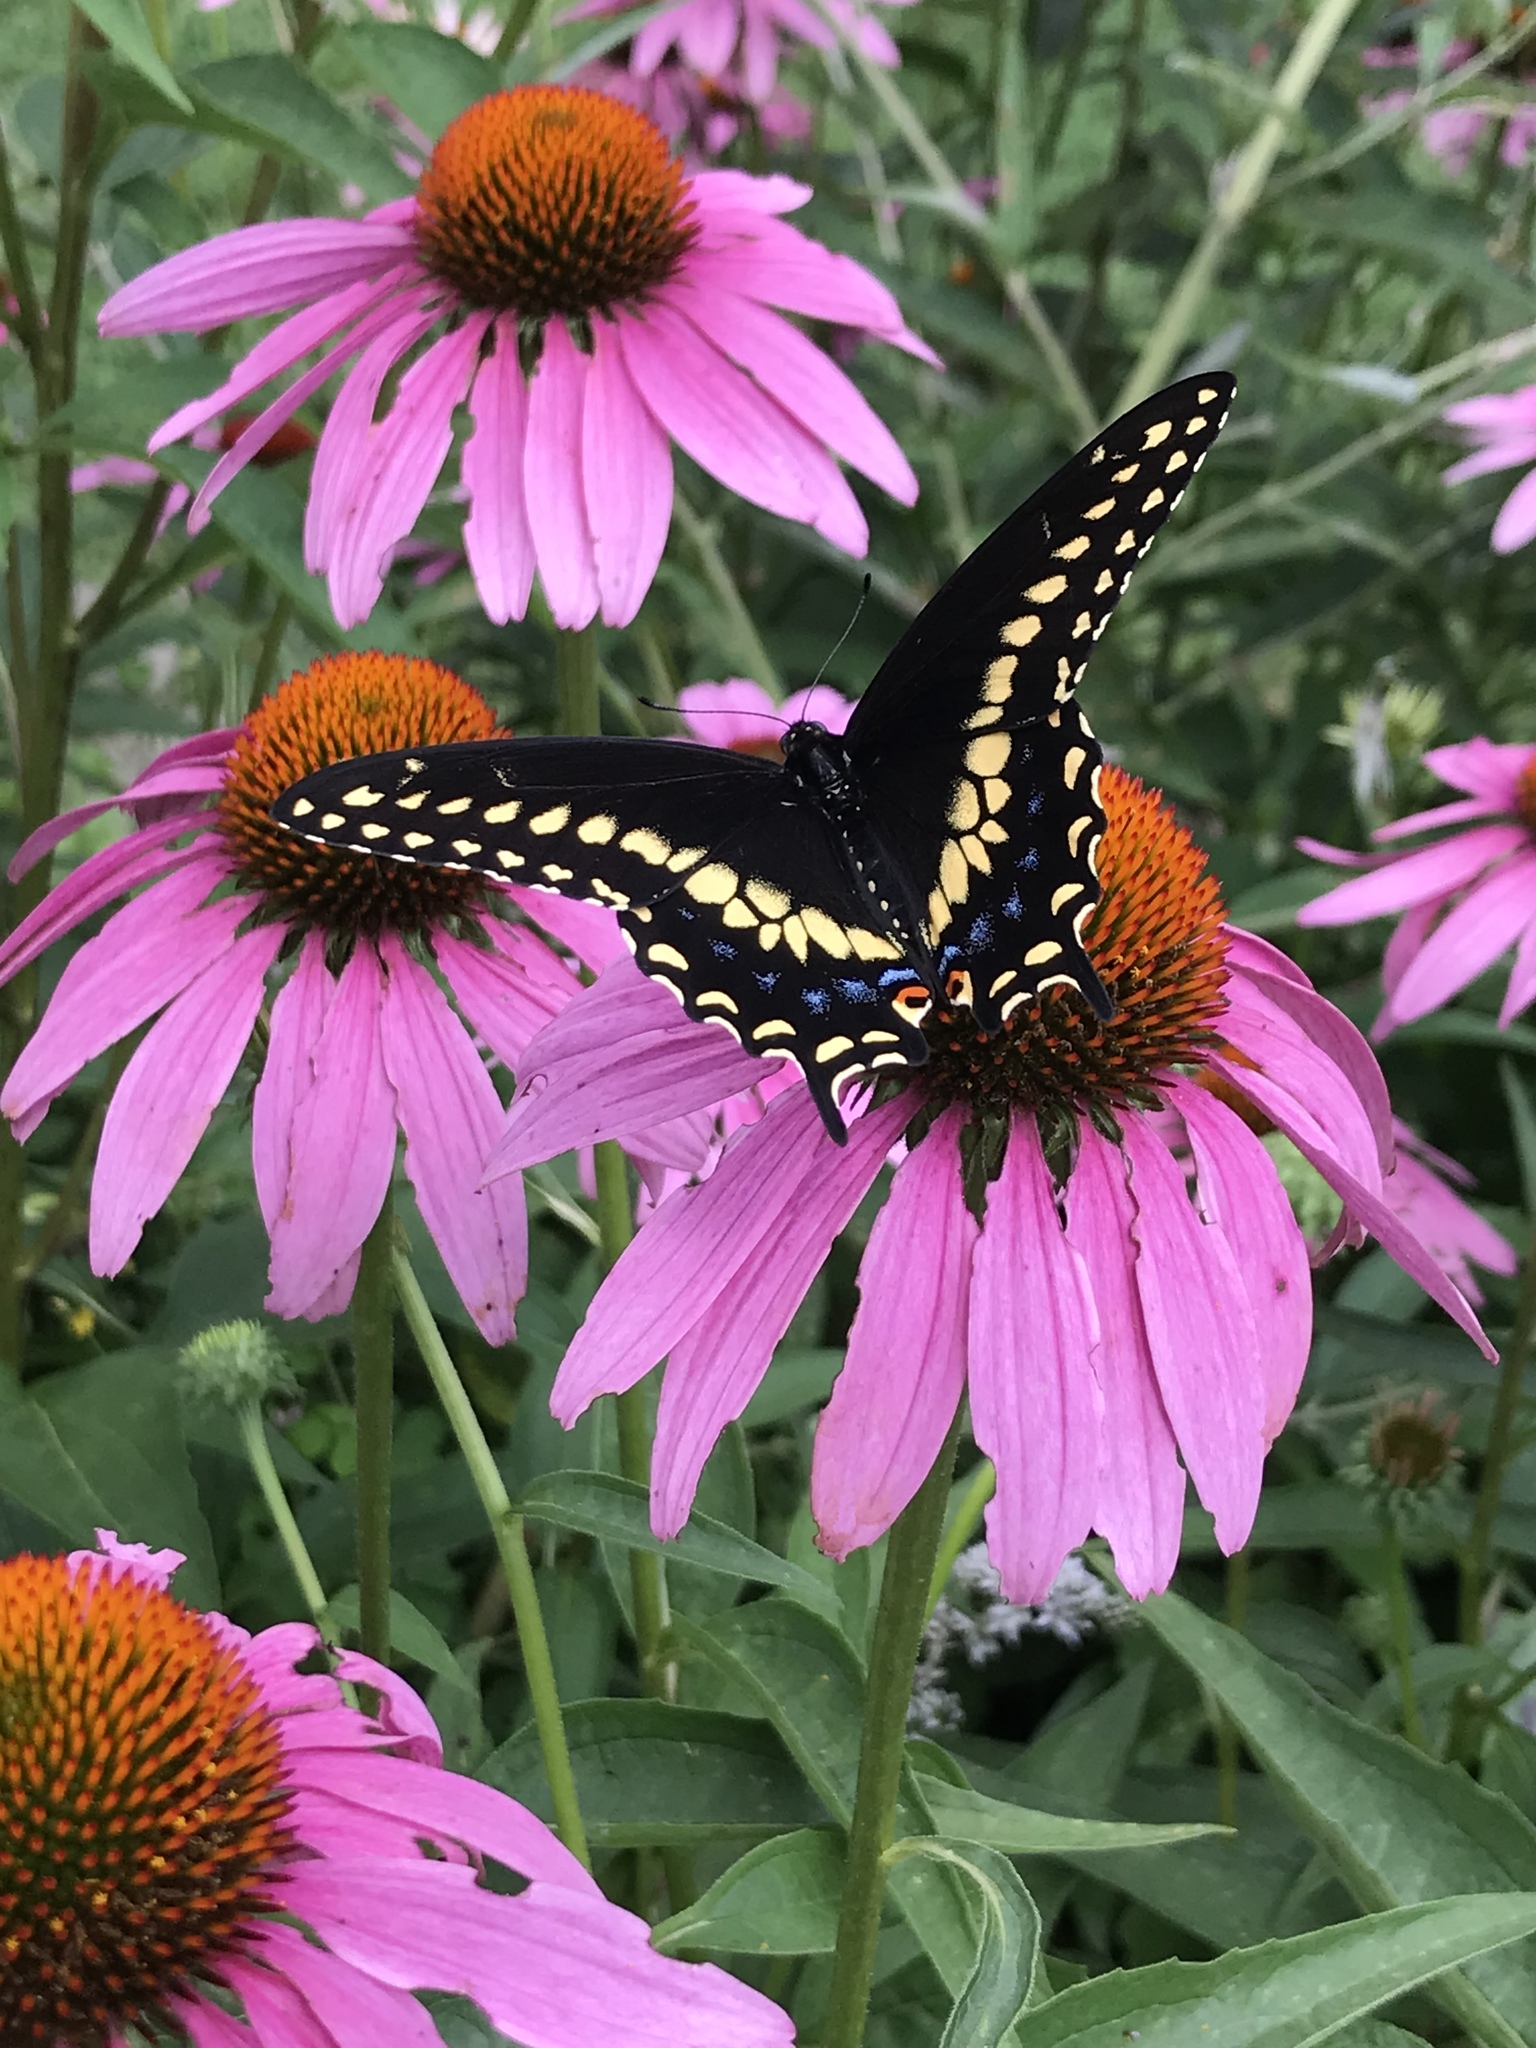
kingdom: Animalia
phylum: Arthropoda
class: Insecta
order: Lepidoptera
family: Papilionidae
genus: Papilio
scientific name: Papilio polyxenes
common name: Black swallowtail
